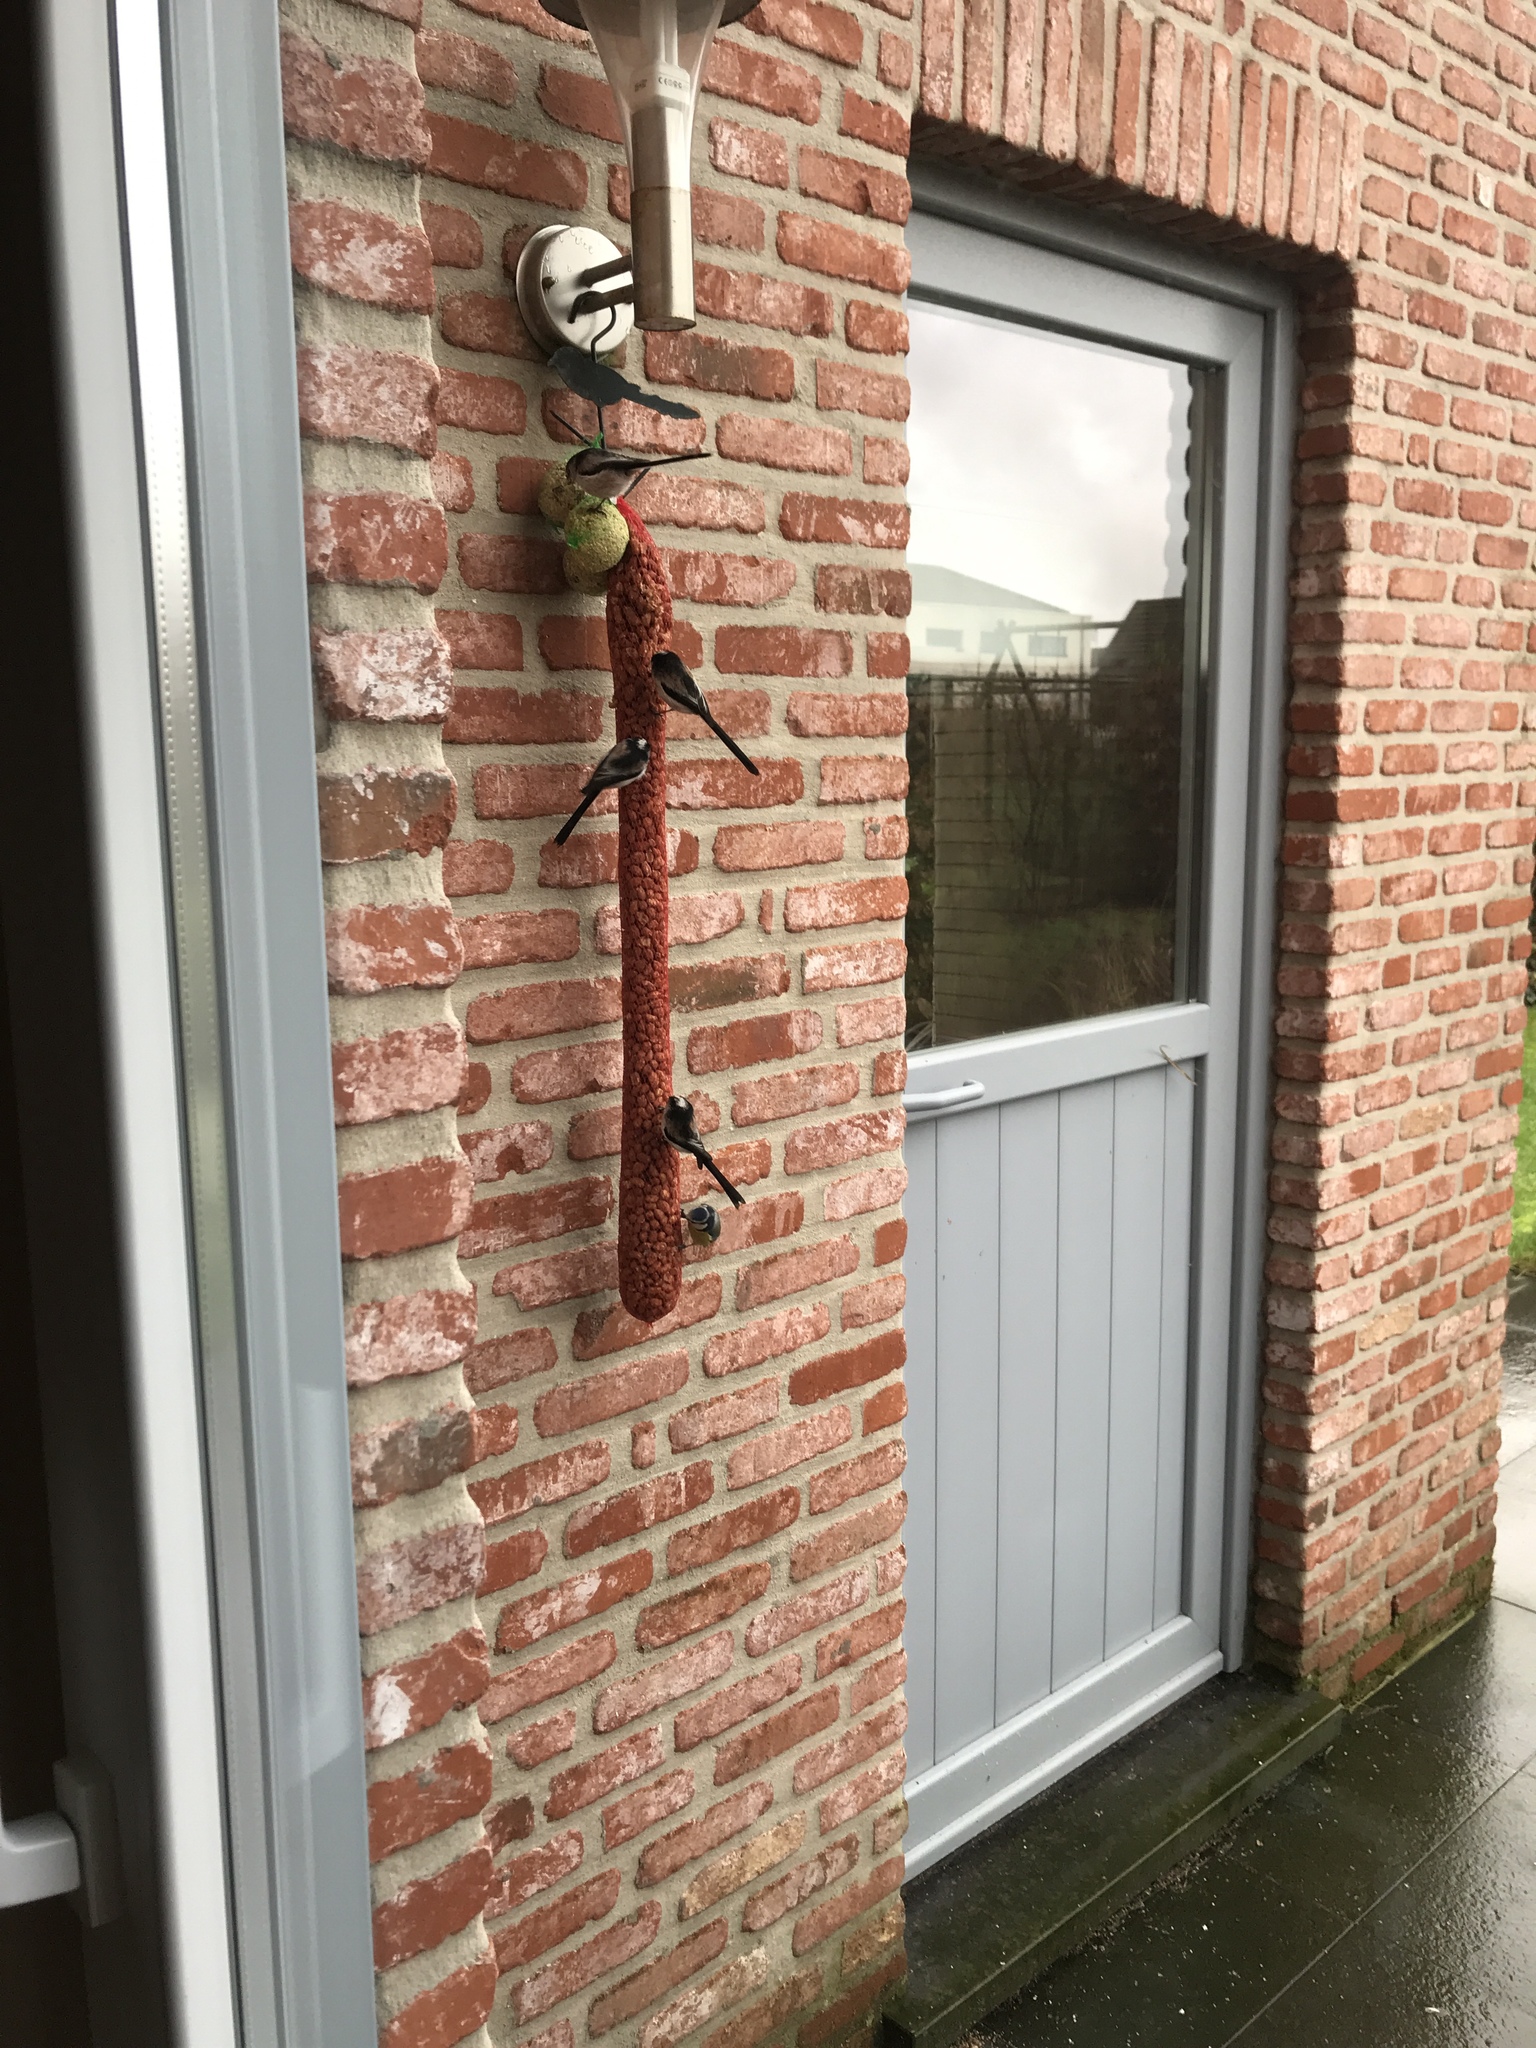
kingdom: Animalia
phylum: Chordata
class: Aves
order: Passeriformes
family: Paridae
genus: Cyanistes
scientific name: Cyanistes caeruleus
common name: Eurasian blue tit
